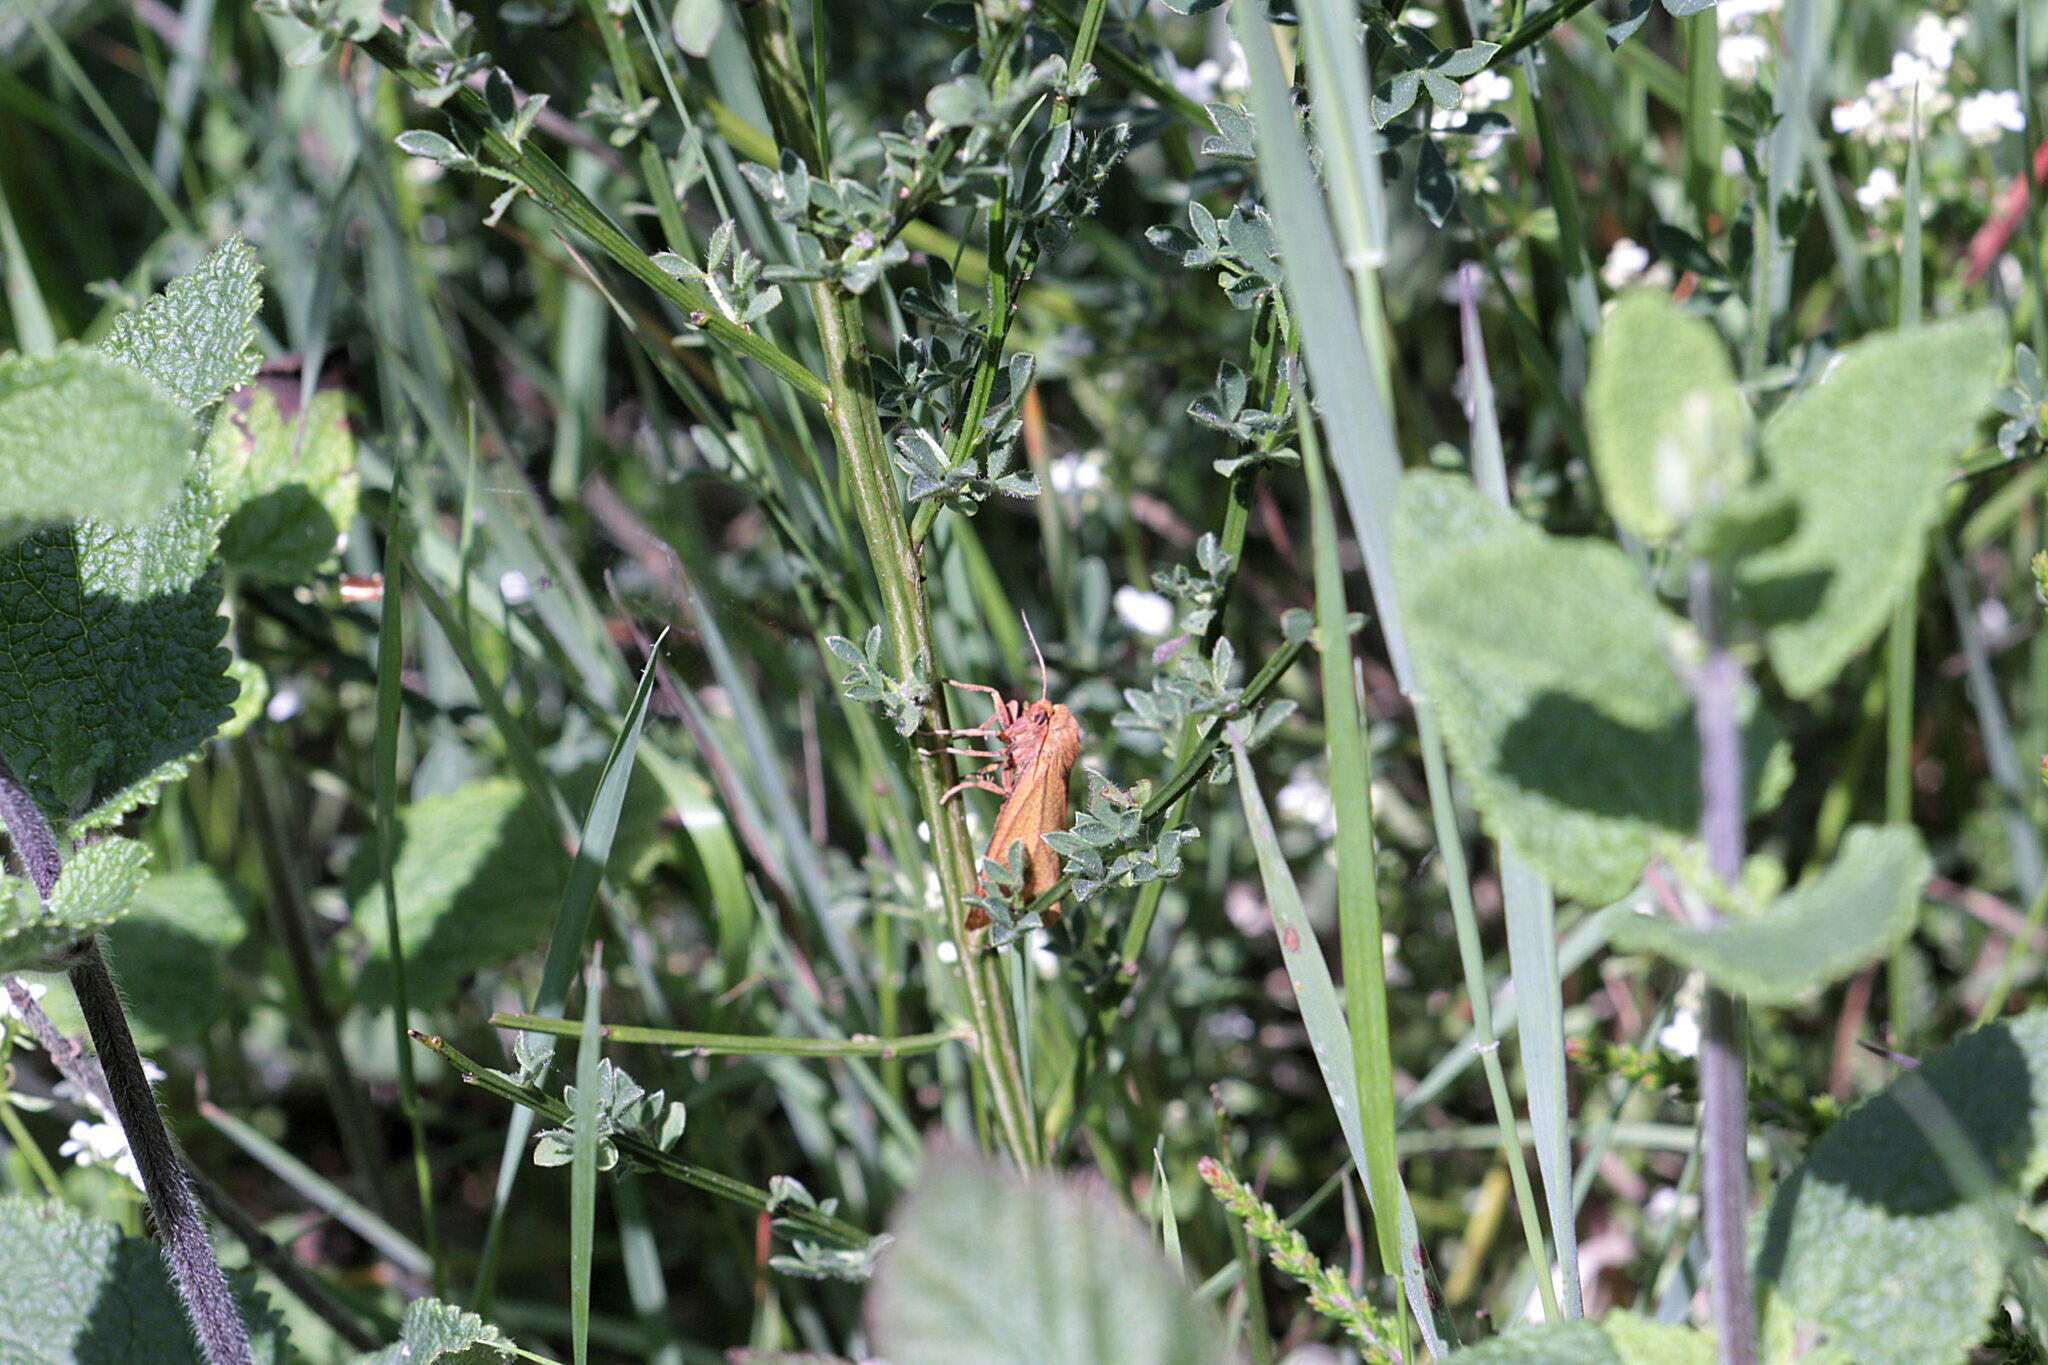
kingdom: Animalia
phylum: Arthropoda
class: Insecta
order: Lepidoptera
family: Erebidae
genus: Diacrisia
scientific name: Diacrisia sannio
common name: Clouded buff
